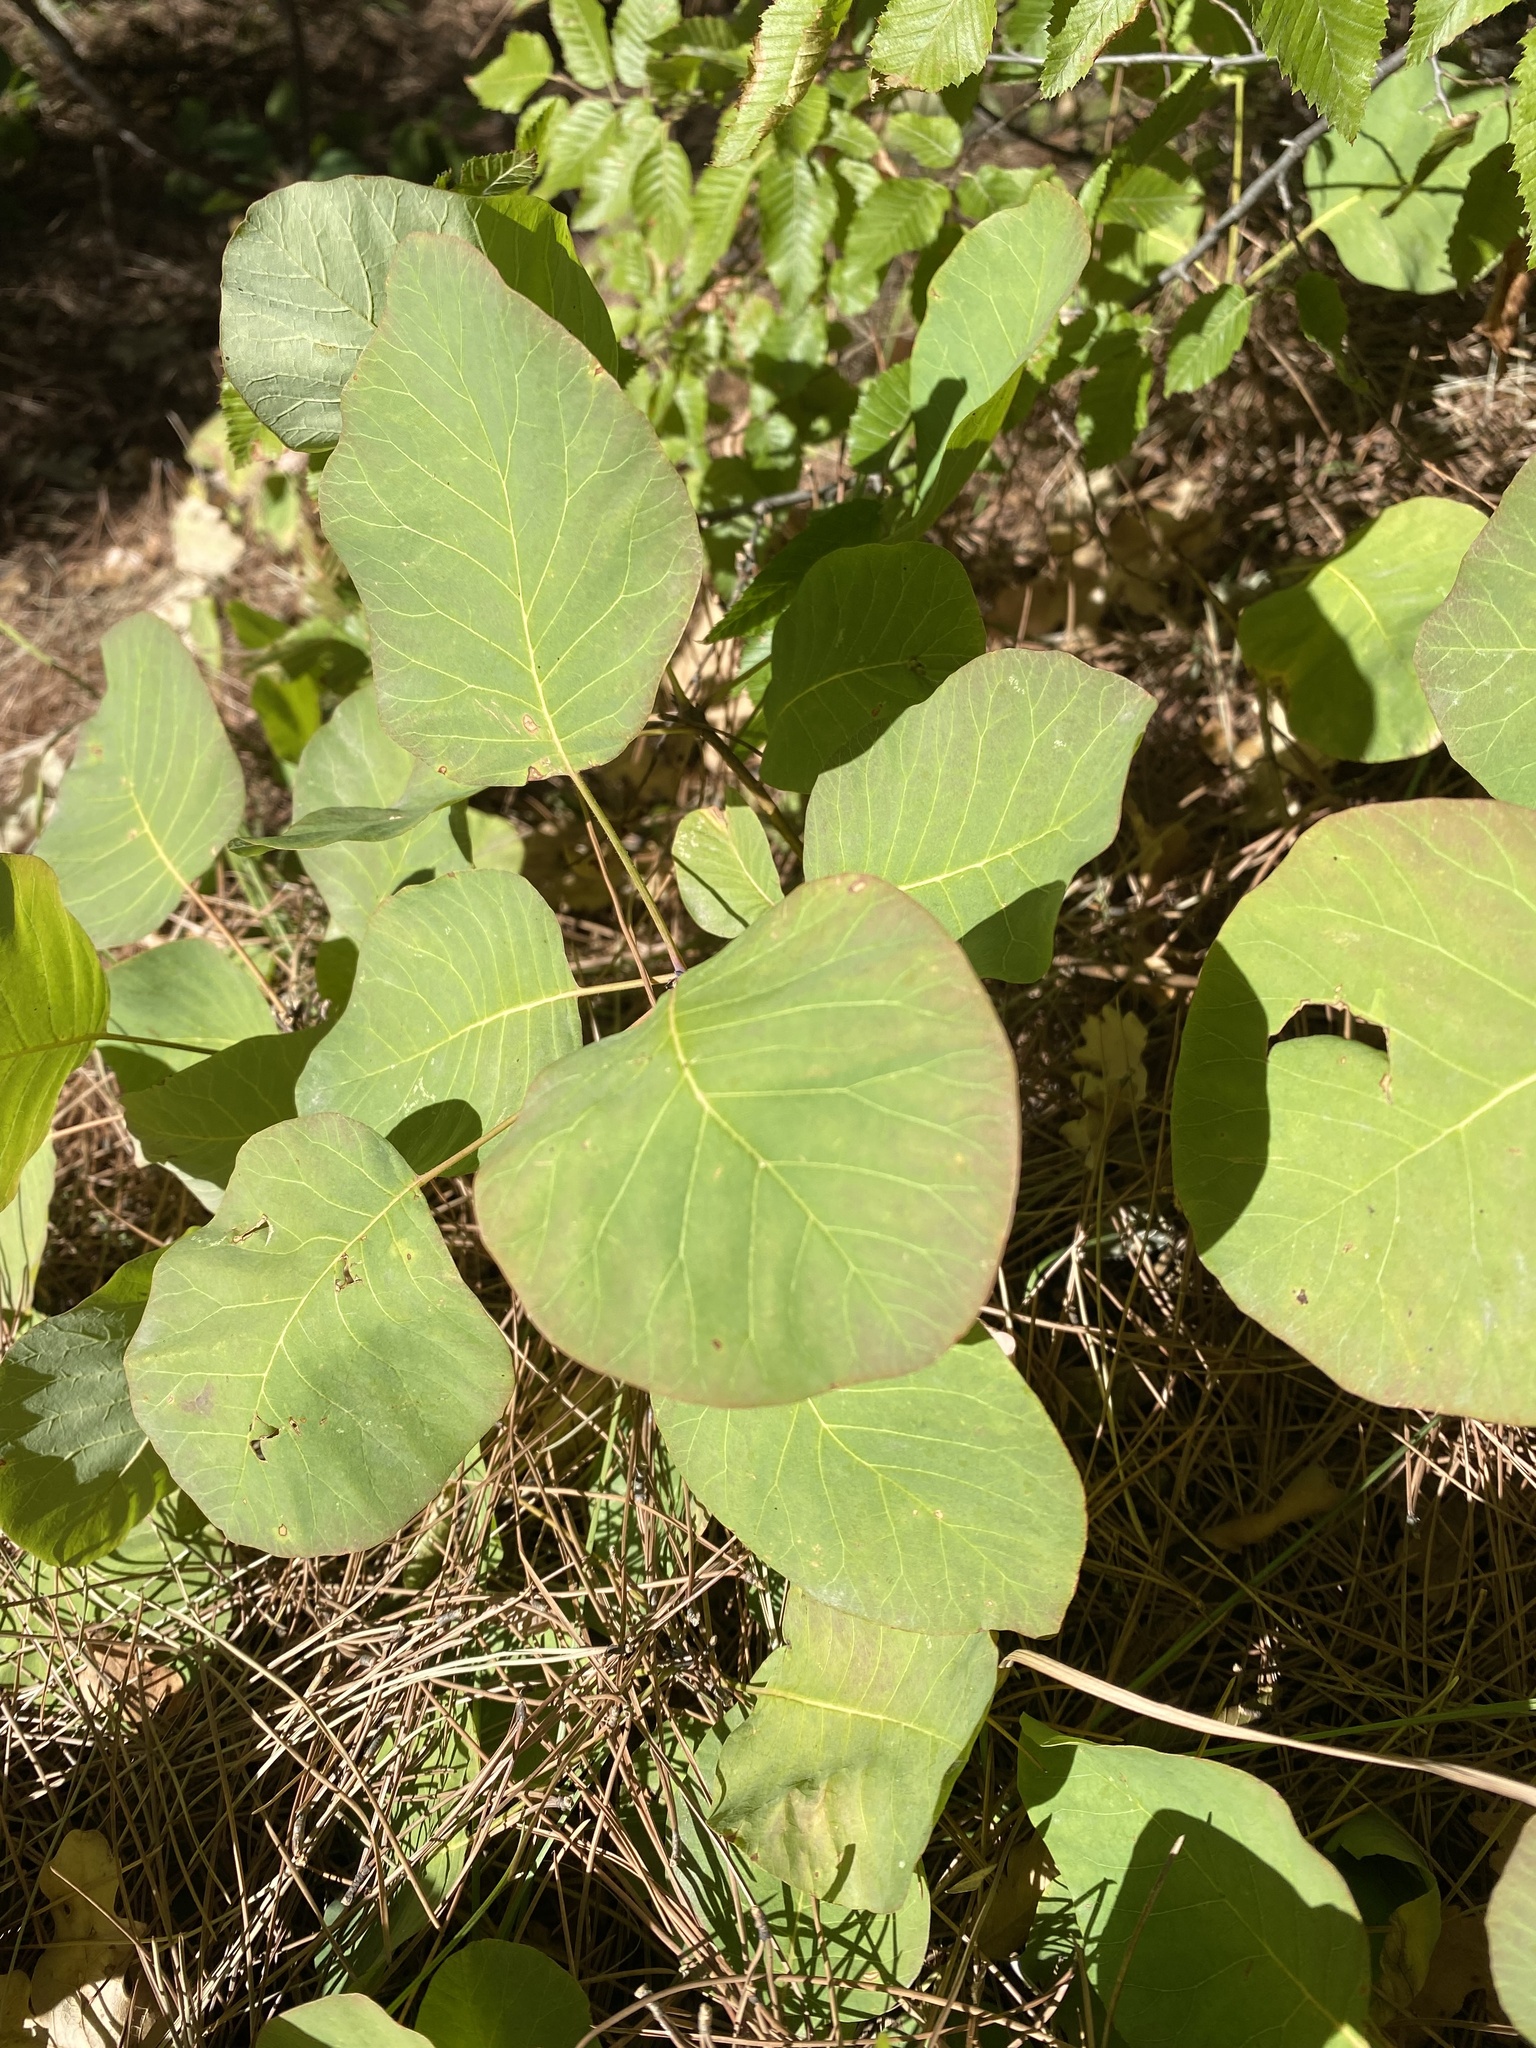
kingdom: Plantae
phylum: Tracheophyta
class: Magnoliopsida
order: Sapindales
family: Anacardiaceae
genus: Cotinus
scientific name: Cotinus coggygria
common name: Smoke-tree
